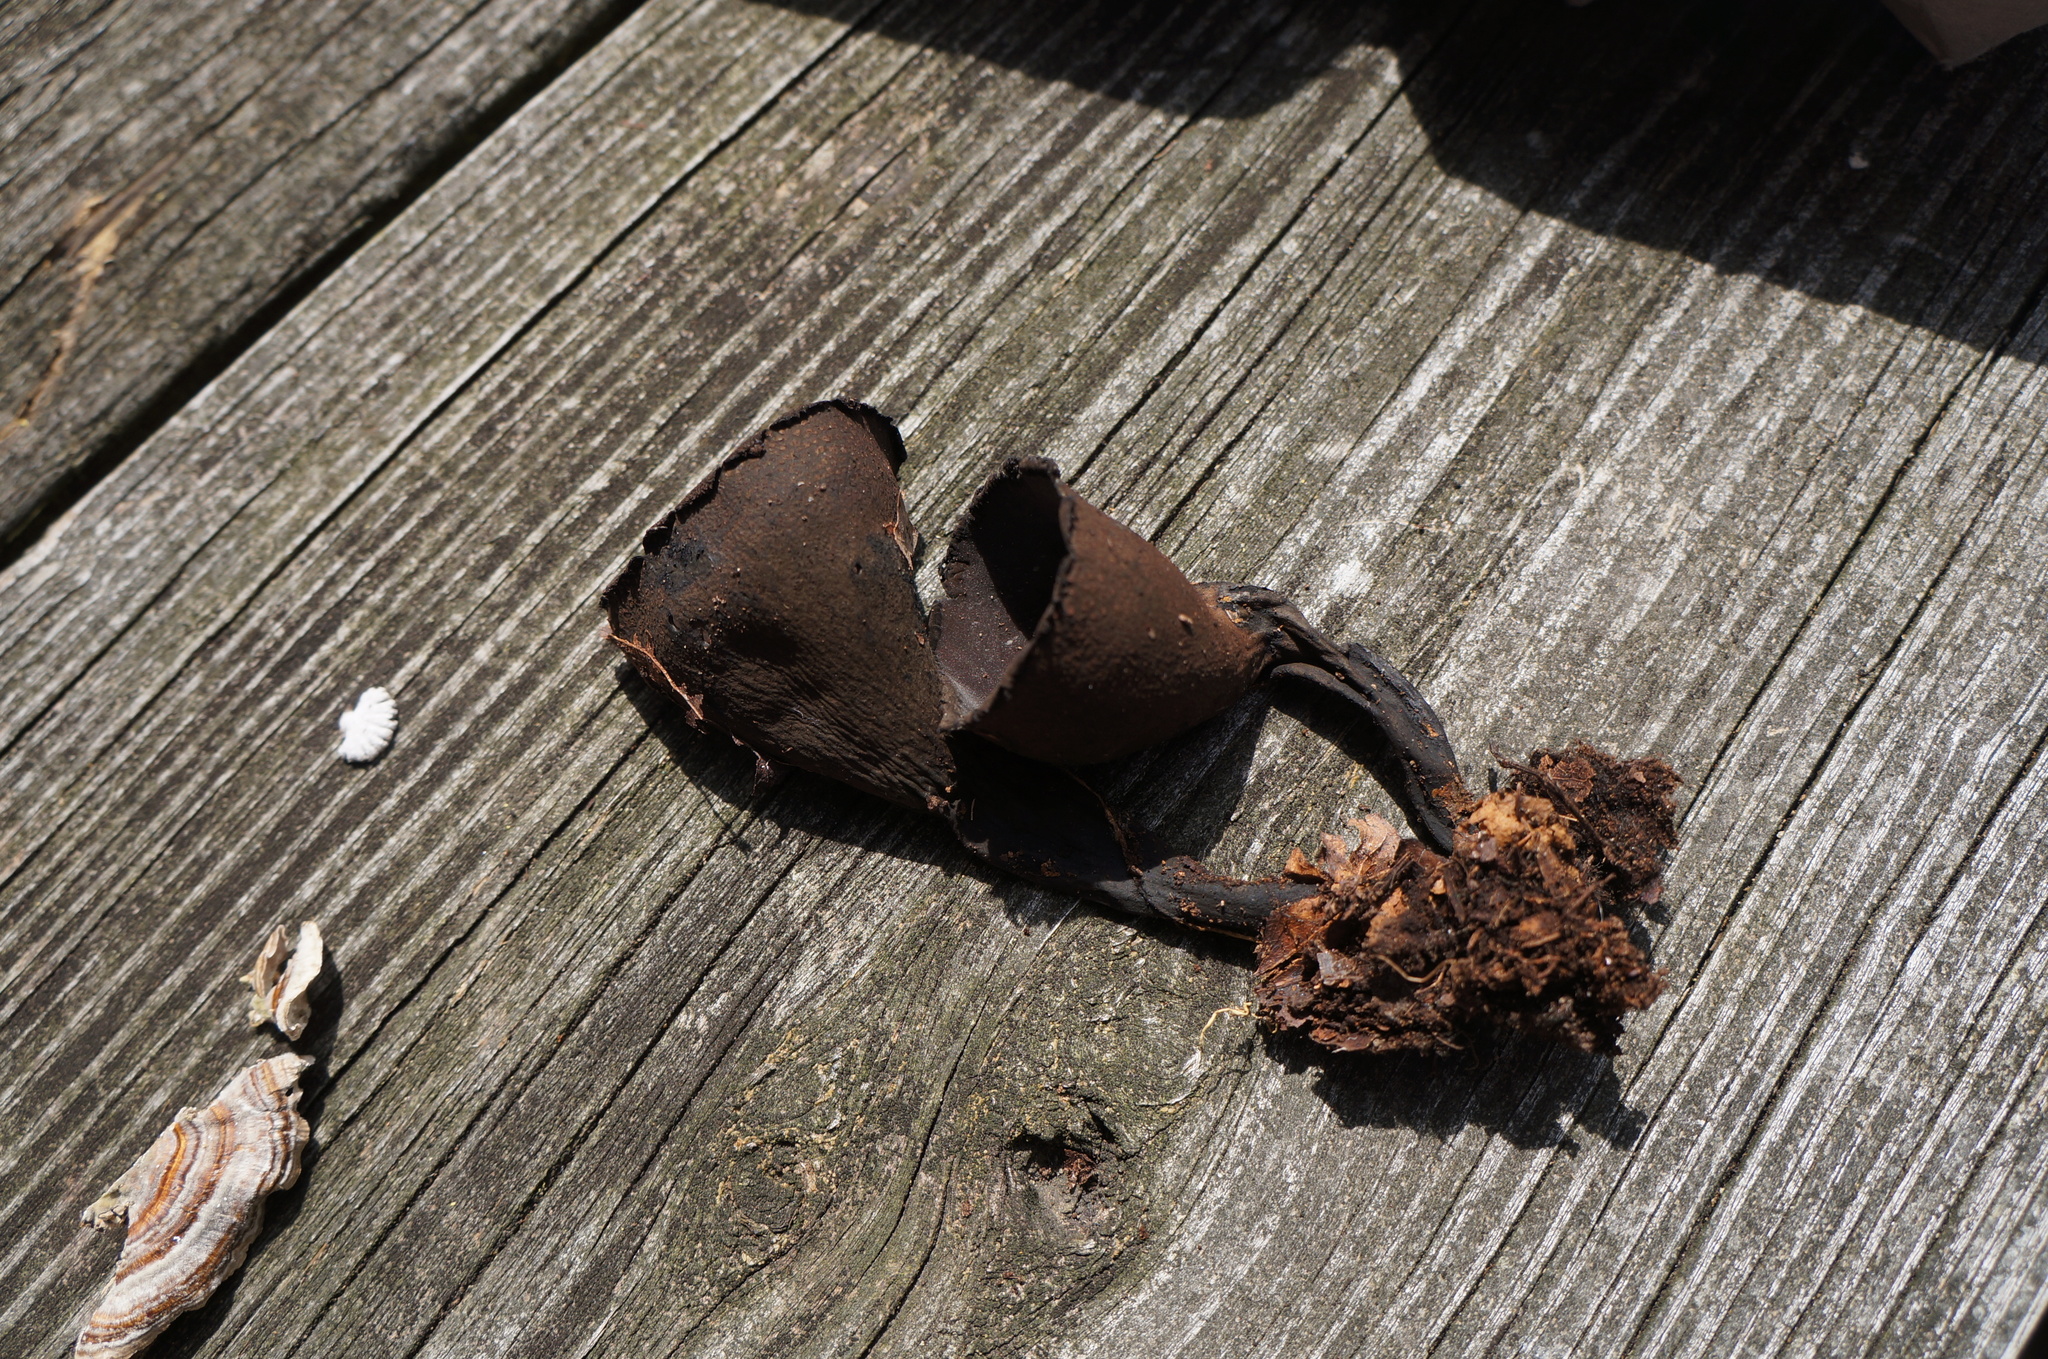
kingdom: Fungi
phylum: Ascomycota
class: Pezizomycetes
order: Pezizales
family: Sarcosomataceae
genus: Urnula
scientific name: Urnula craterium
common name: Devil's urn
